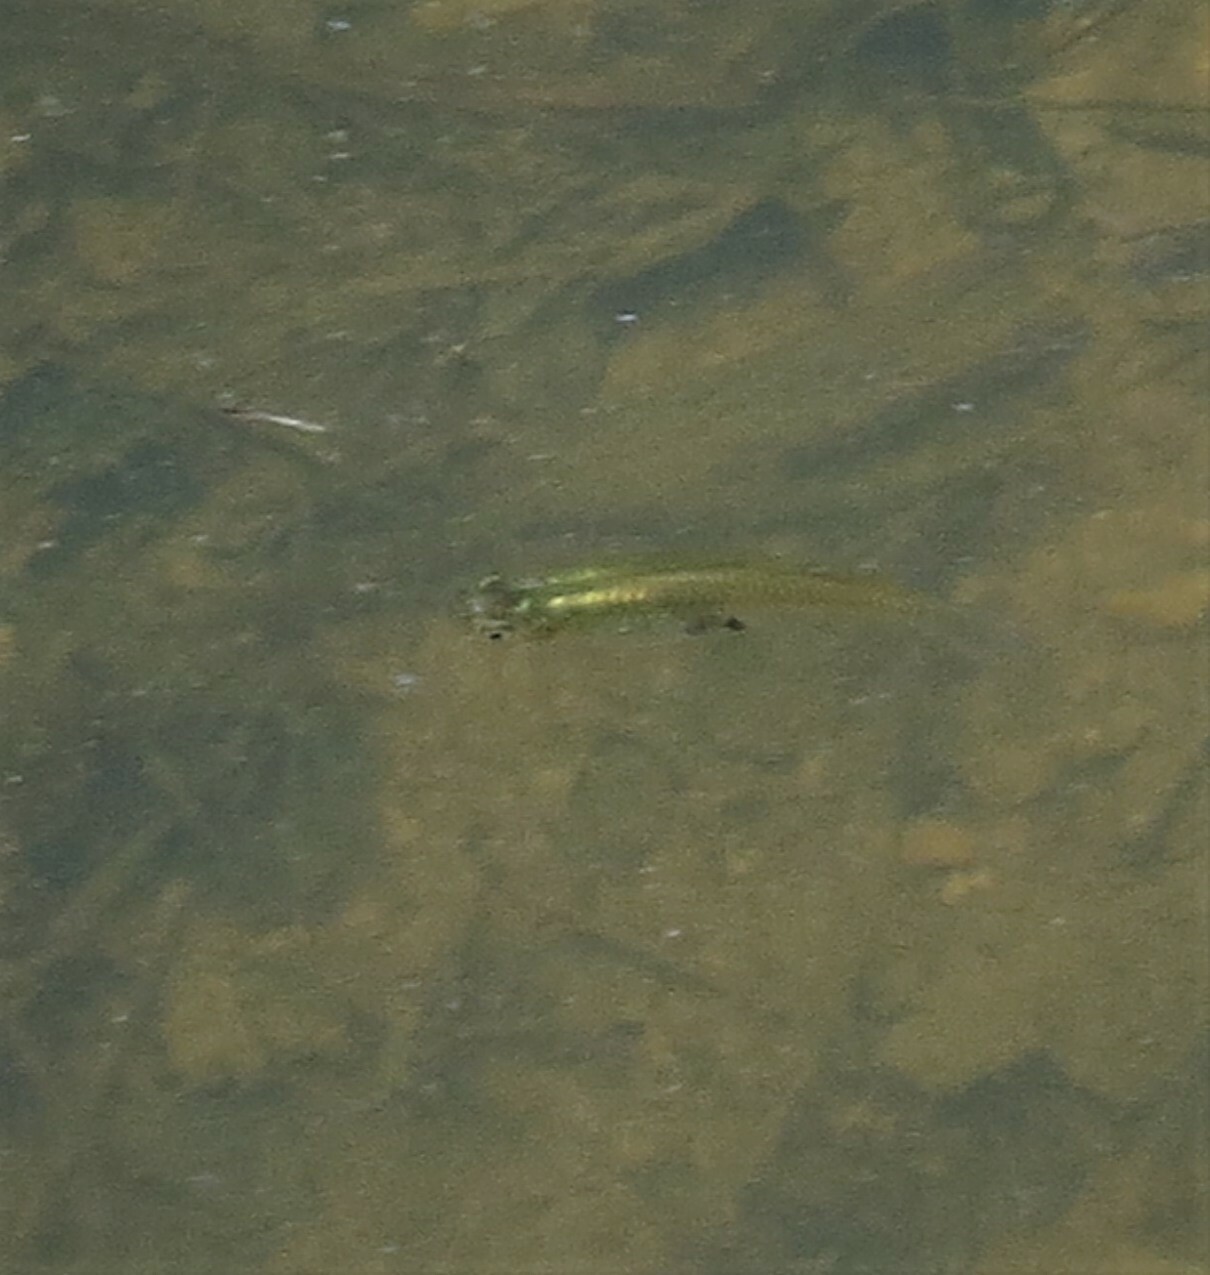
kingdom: Animalia
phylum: Chordata
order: Cyprinodontiformes
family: Poeciliidae
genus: Gambusia
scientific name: Gambusia holbrooki
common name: Eastern mosquitofish
